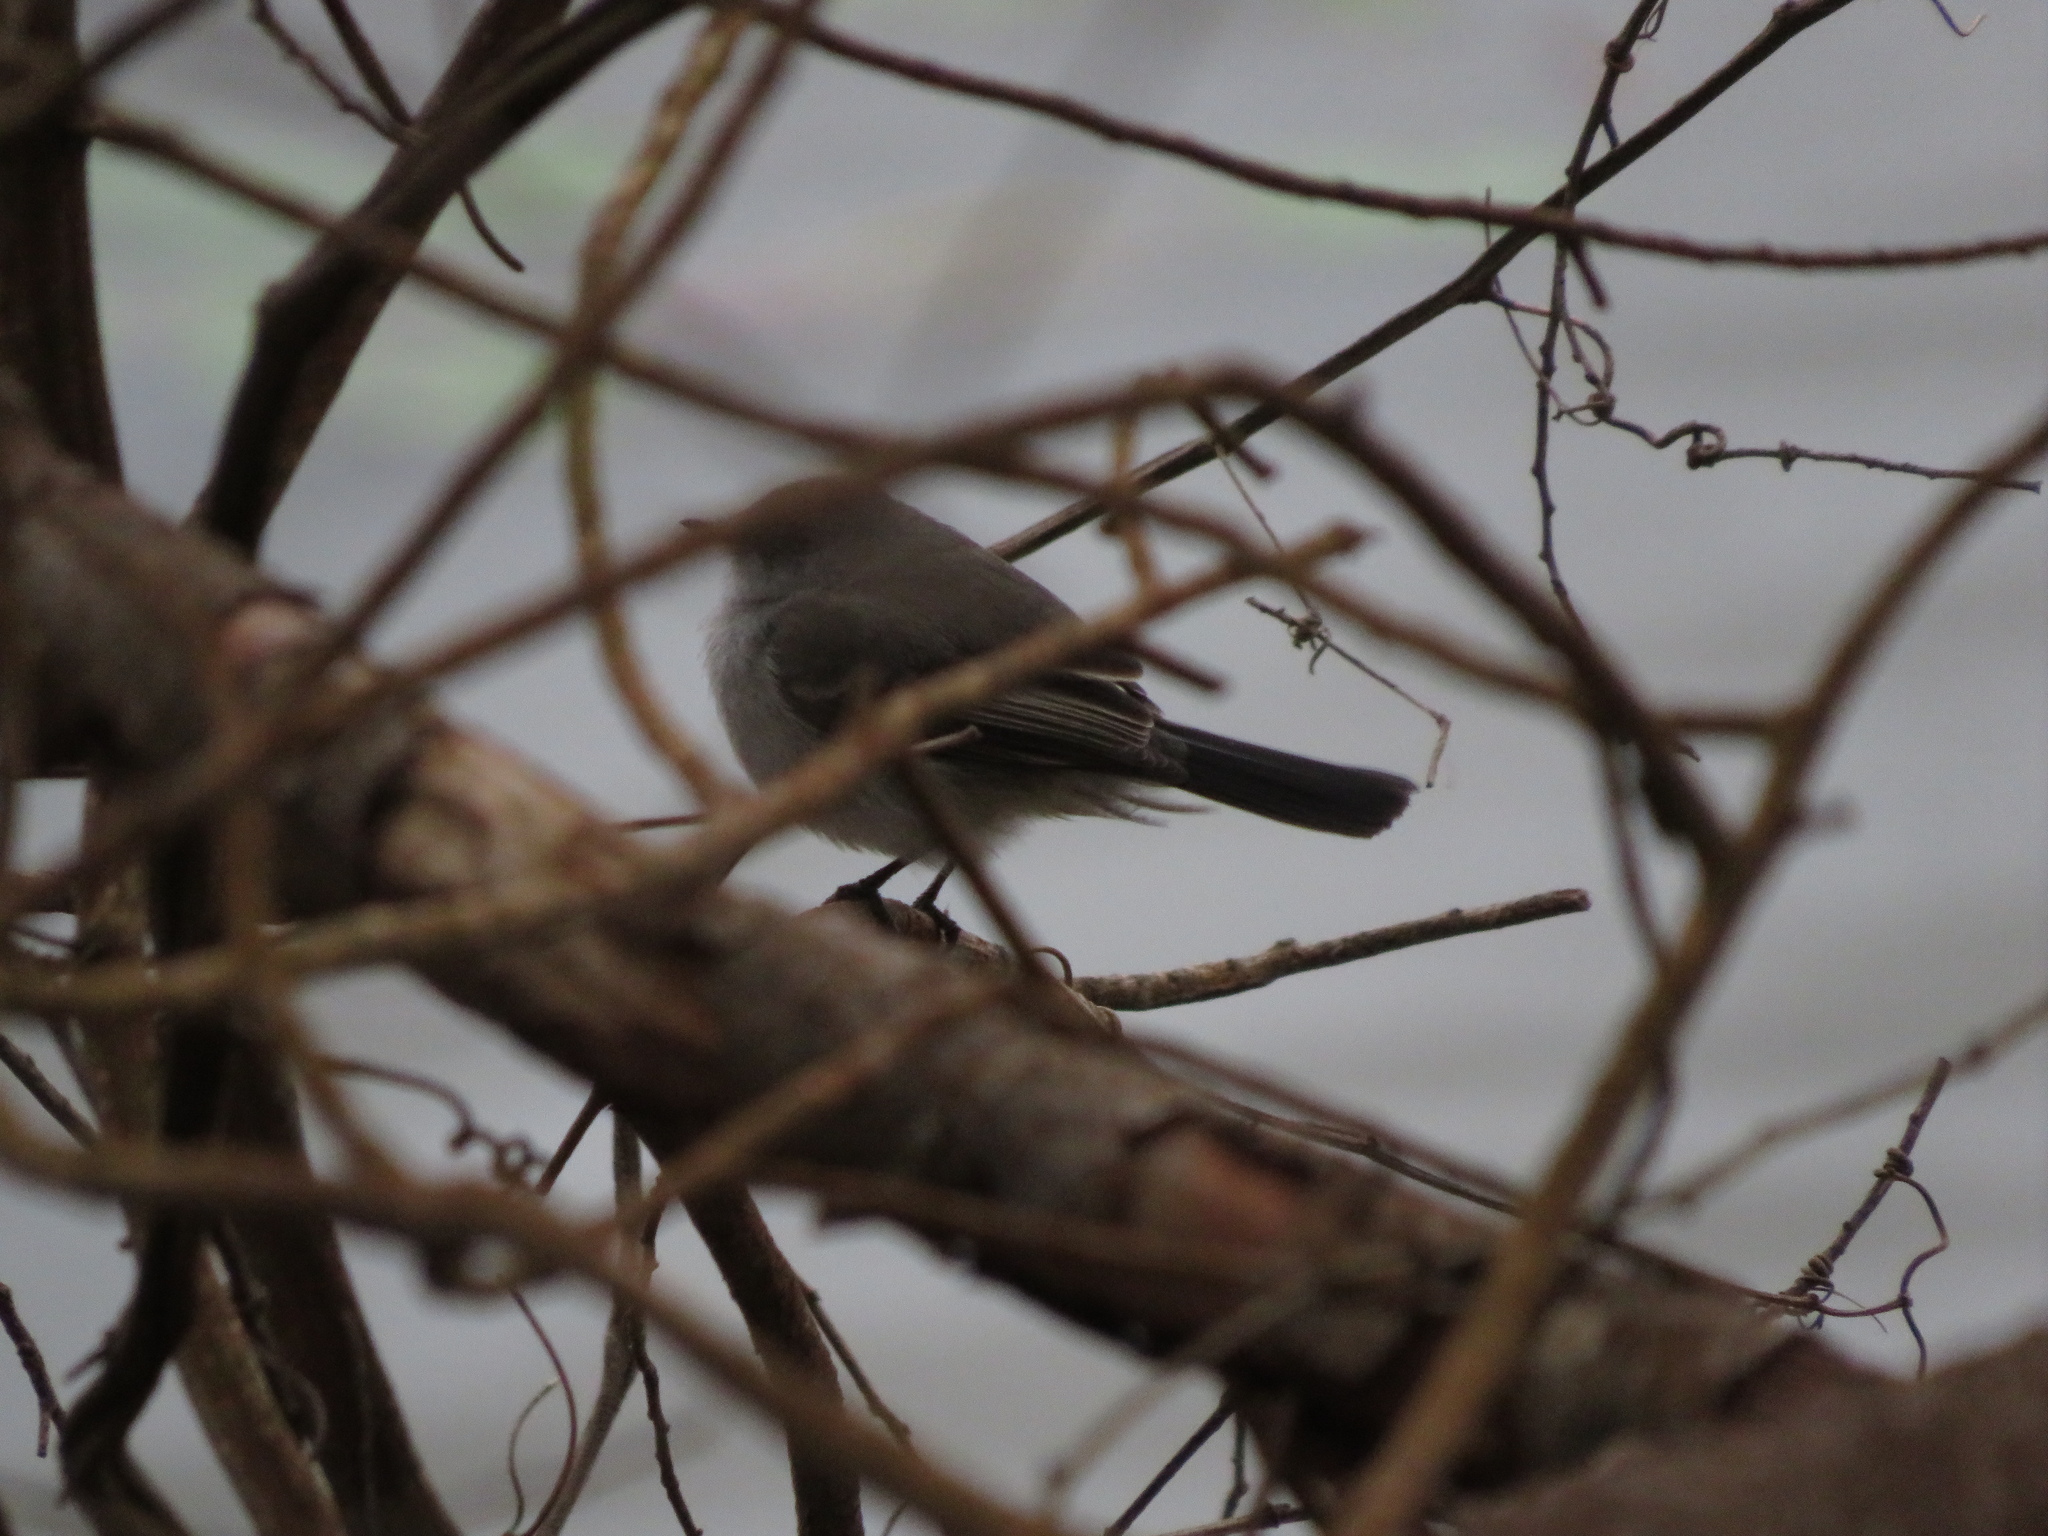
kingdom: Animalia
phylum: Chordata
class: Aves
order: Passeriformes
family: Tyrannidae
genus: Serpophaga
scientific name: Serpophaga nigricans
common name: Sooty tyrannulet
